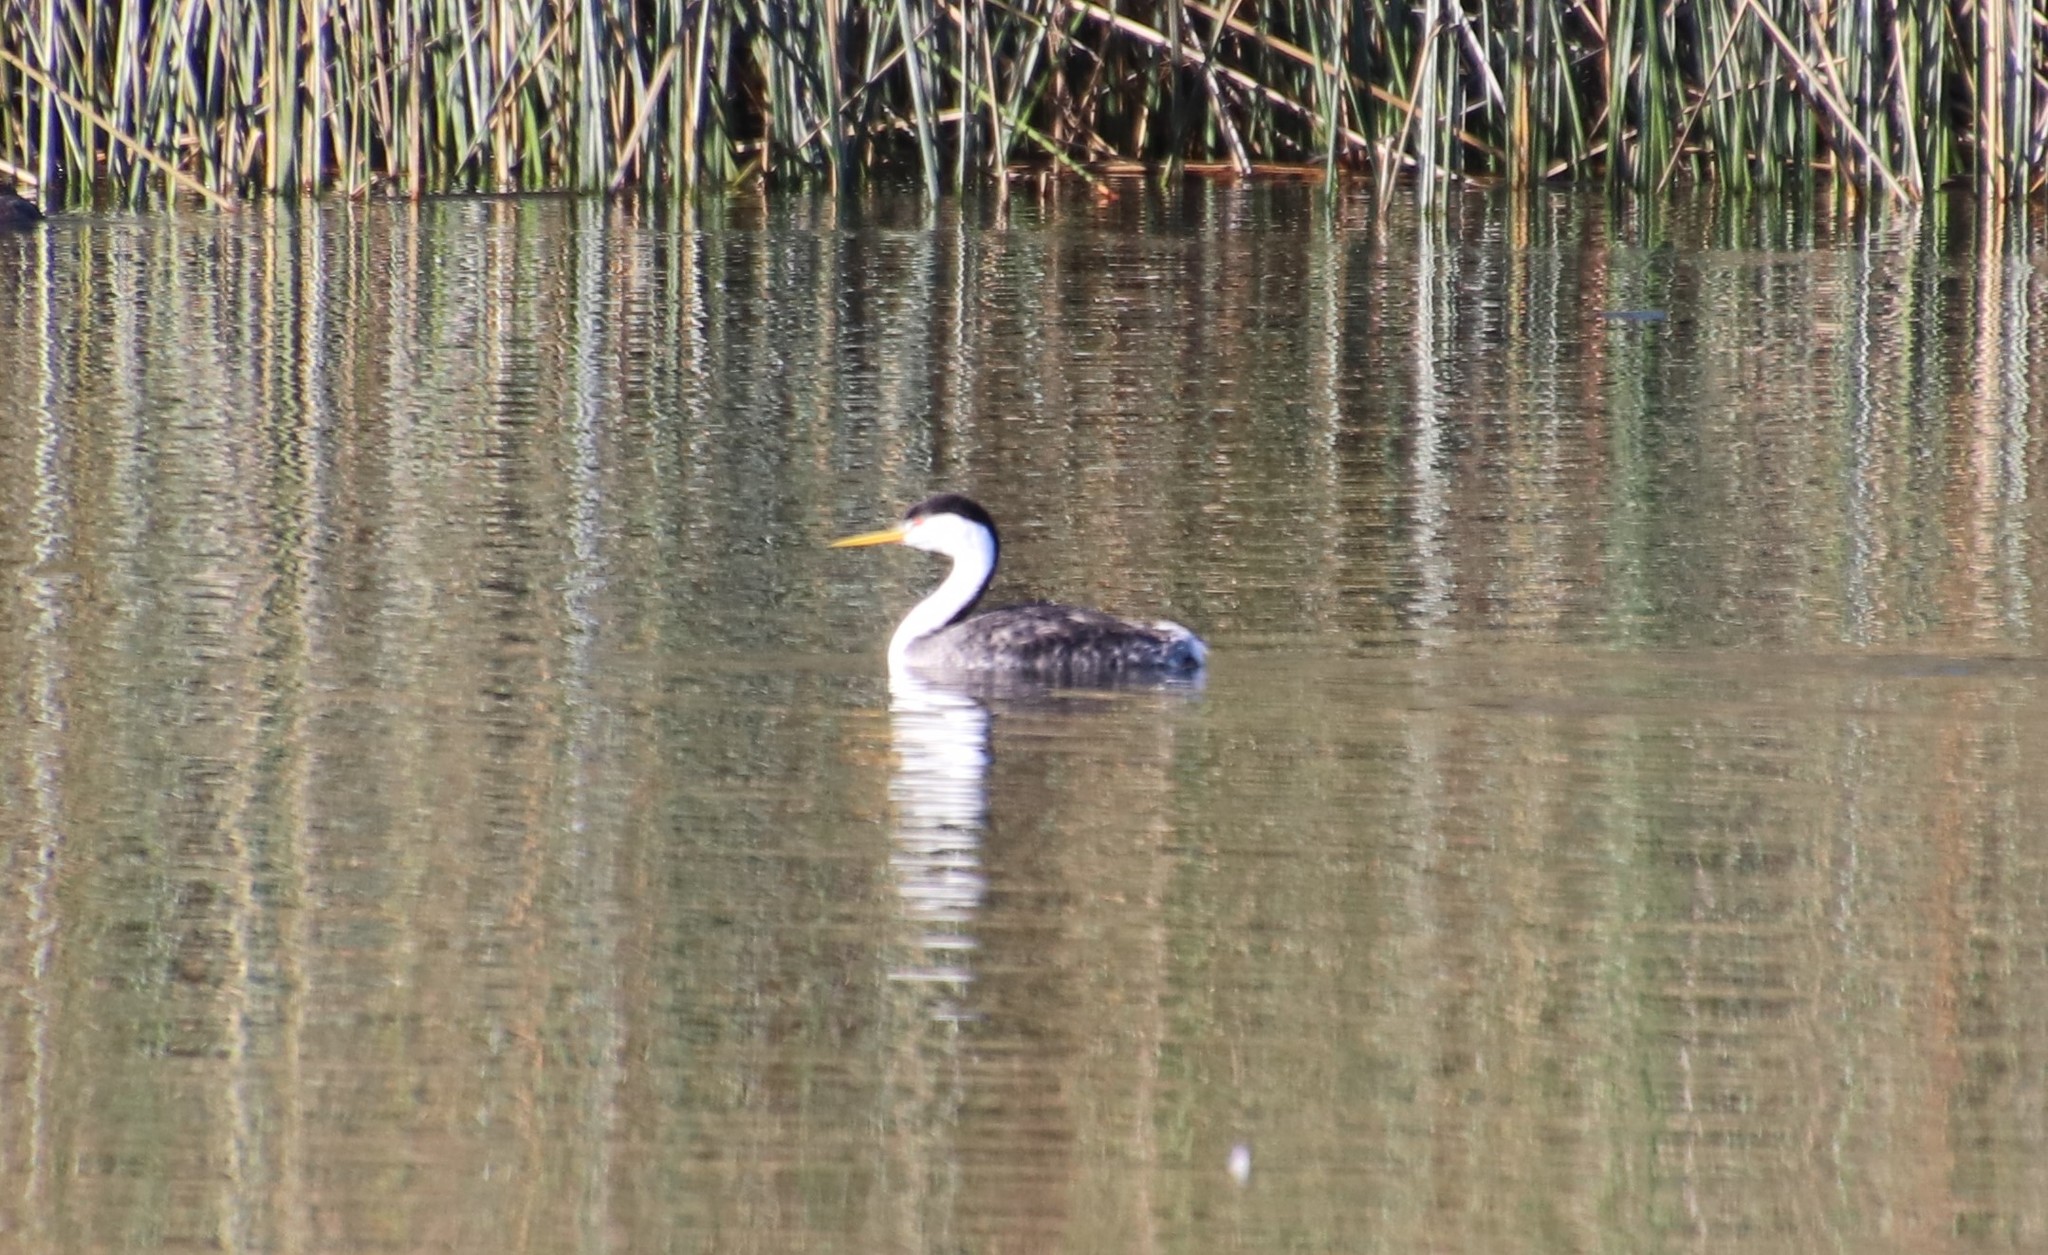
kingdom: Animalia
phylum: Chordata
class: Aves
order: Podicipediformes
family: Podicipedidae
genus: Aechmophorus
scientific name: Aechmophorus clarkii
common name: Clark's grebe
